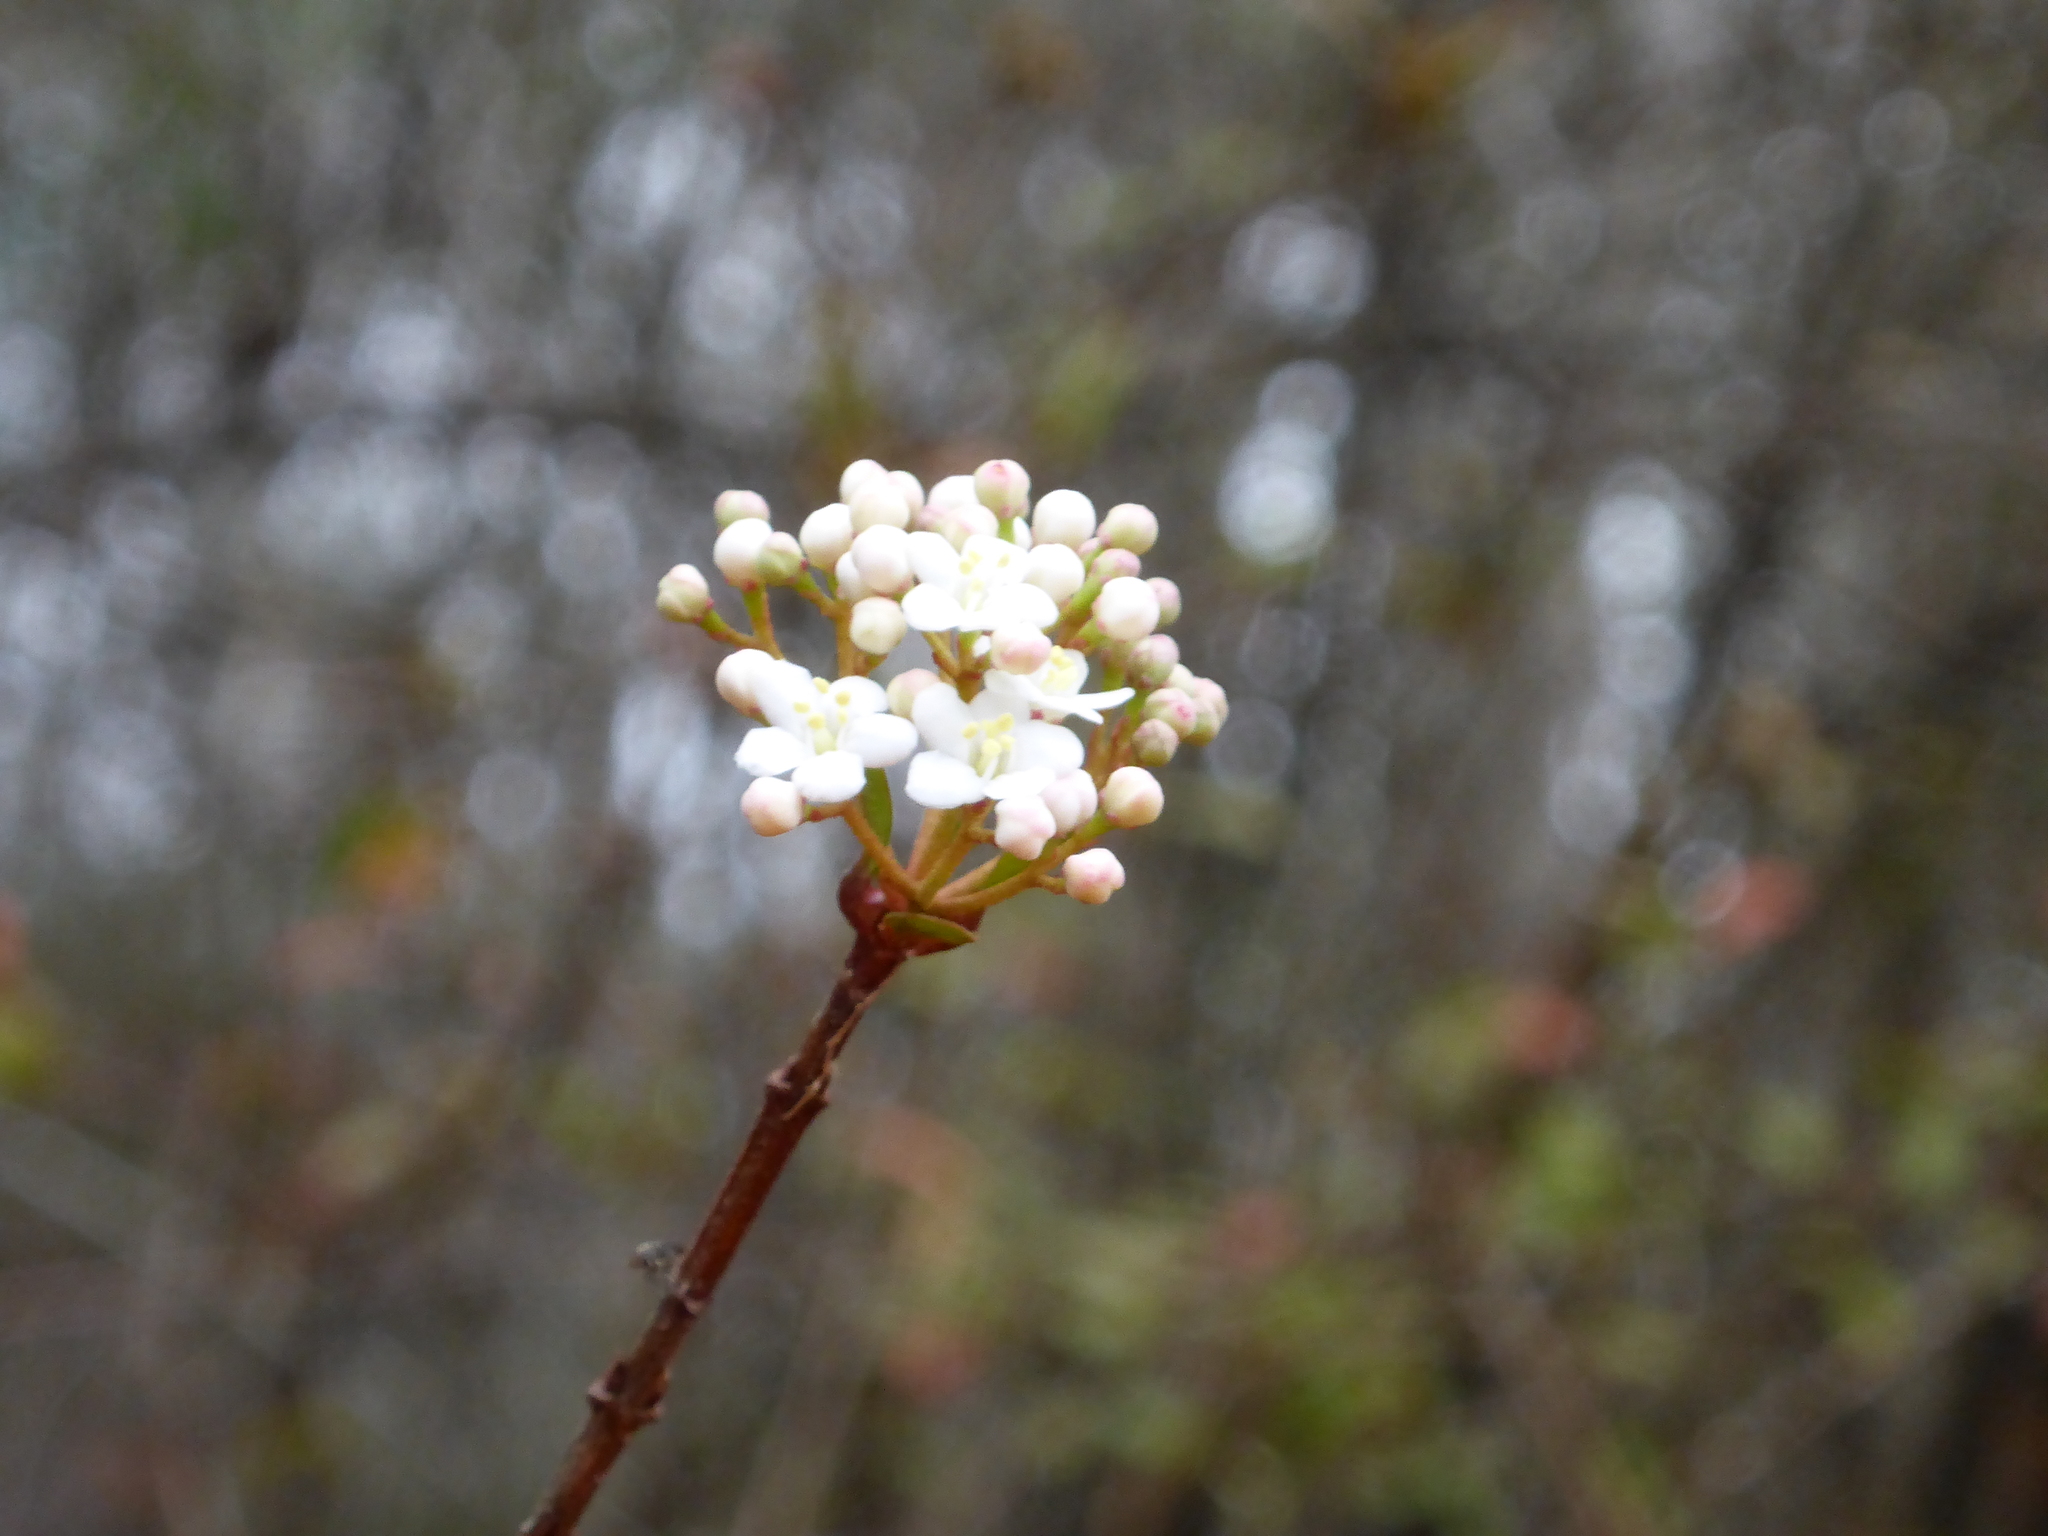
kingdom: Plantae
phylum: Tracheophyta
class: Magnoliopsida
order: Dipsacales
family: Viburnaceae
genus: Viburnum
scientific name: Viburnum obovatum
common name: Walter's viburnum
